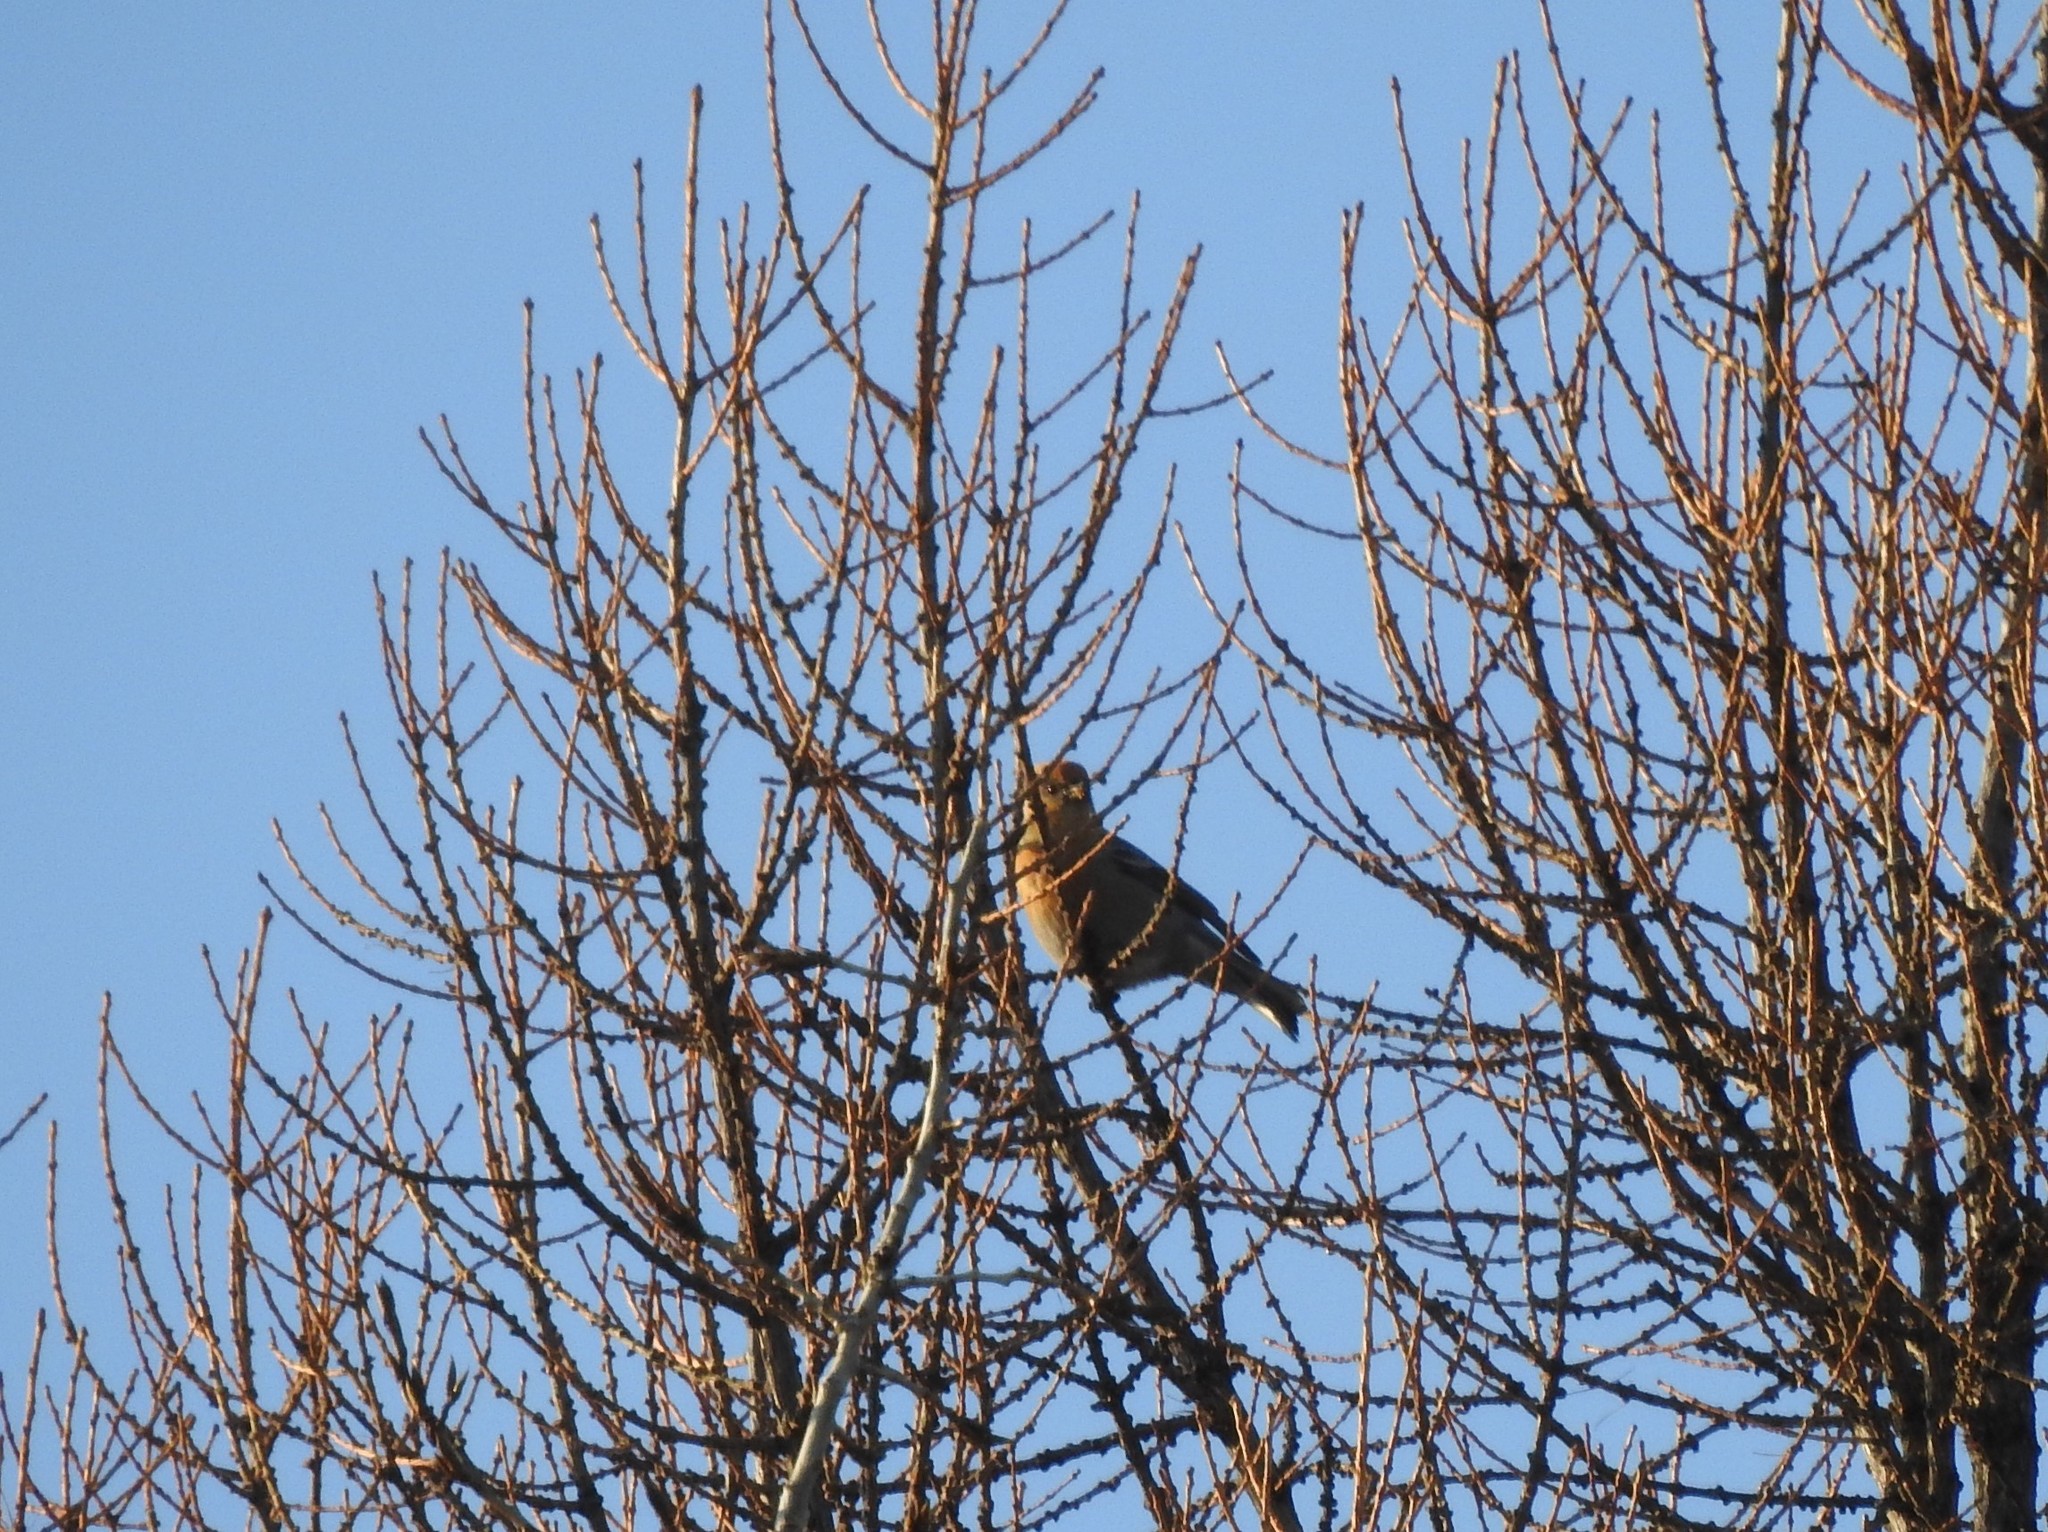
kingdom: Animalia
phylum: Chordata
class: Aves
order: Passeriformes
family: Fringillidae
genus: Pinicola
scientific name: Pinicola enucleator
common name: Pine grosbeak
